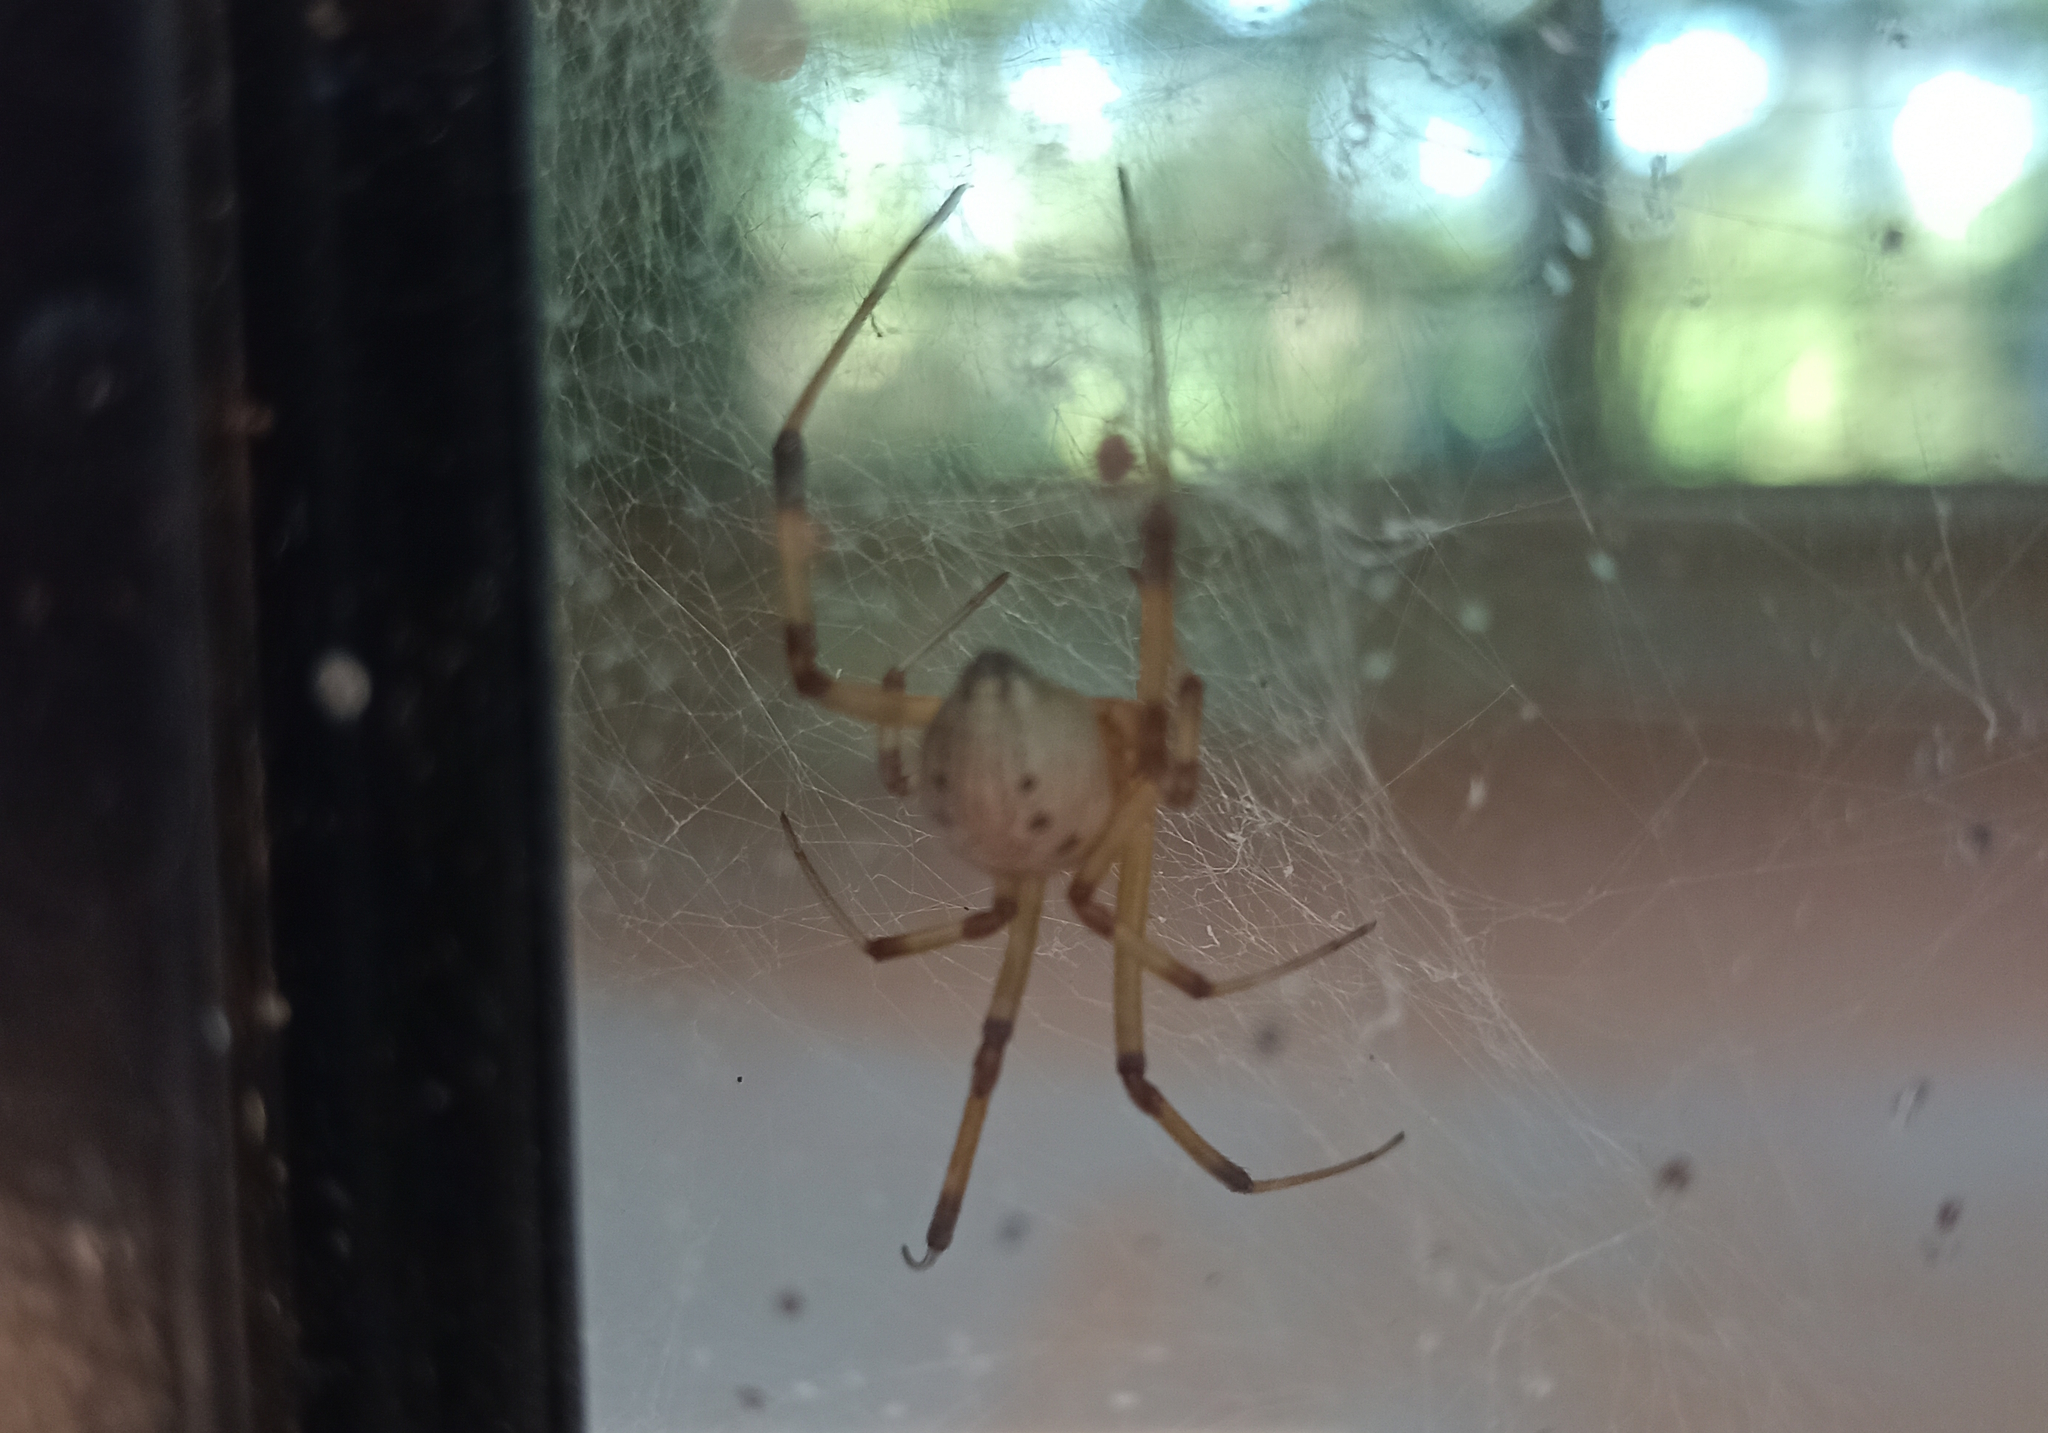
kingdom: Animalia
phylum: Arthropoda
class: Arachnida
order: Araneae
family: Theridiidae
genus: Latrodectus
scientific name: Latrodectus geometricus
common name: Brown widow spider
